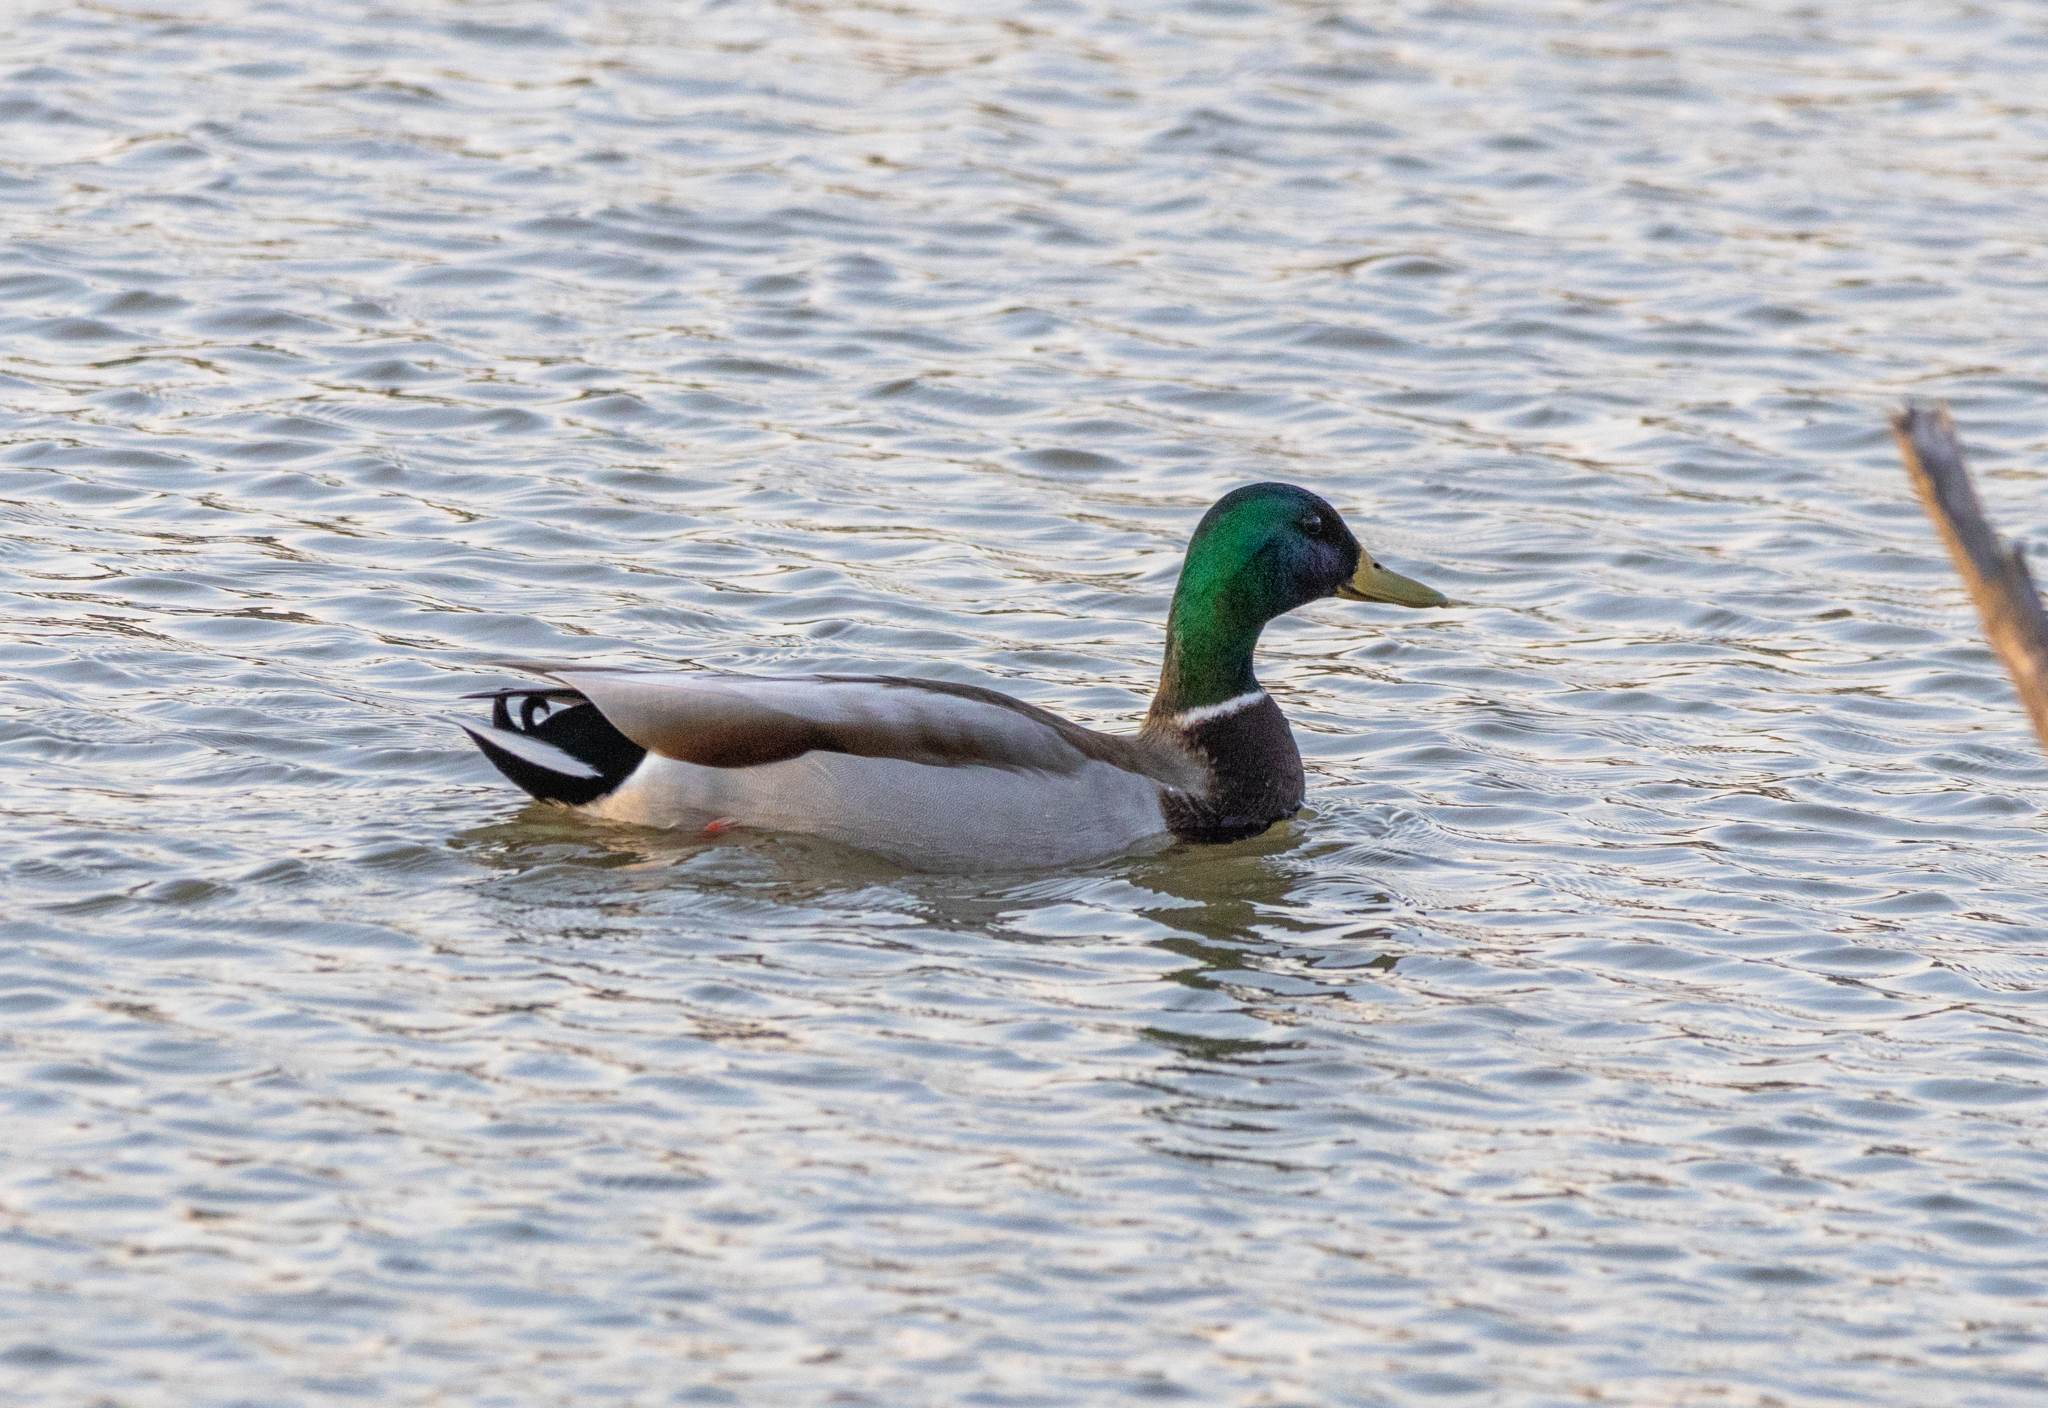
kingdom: Animalia
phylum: Chordata
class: Aves
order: Anseriformes
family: Anatidae
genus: Anas
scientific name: Anas platyrhynchos
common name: Mallard
